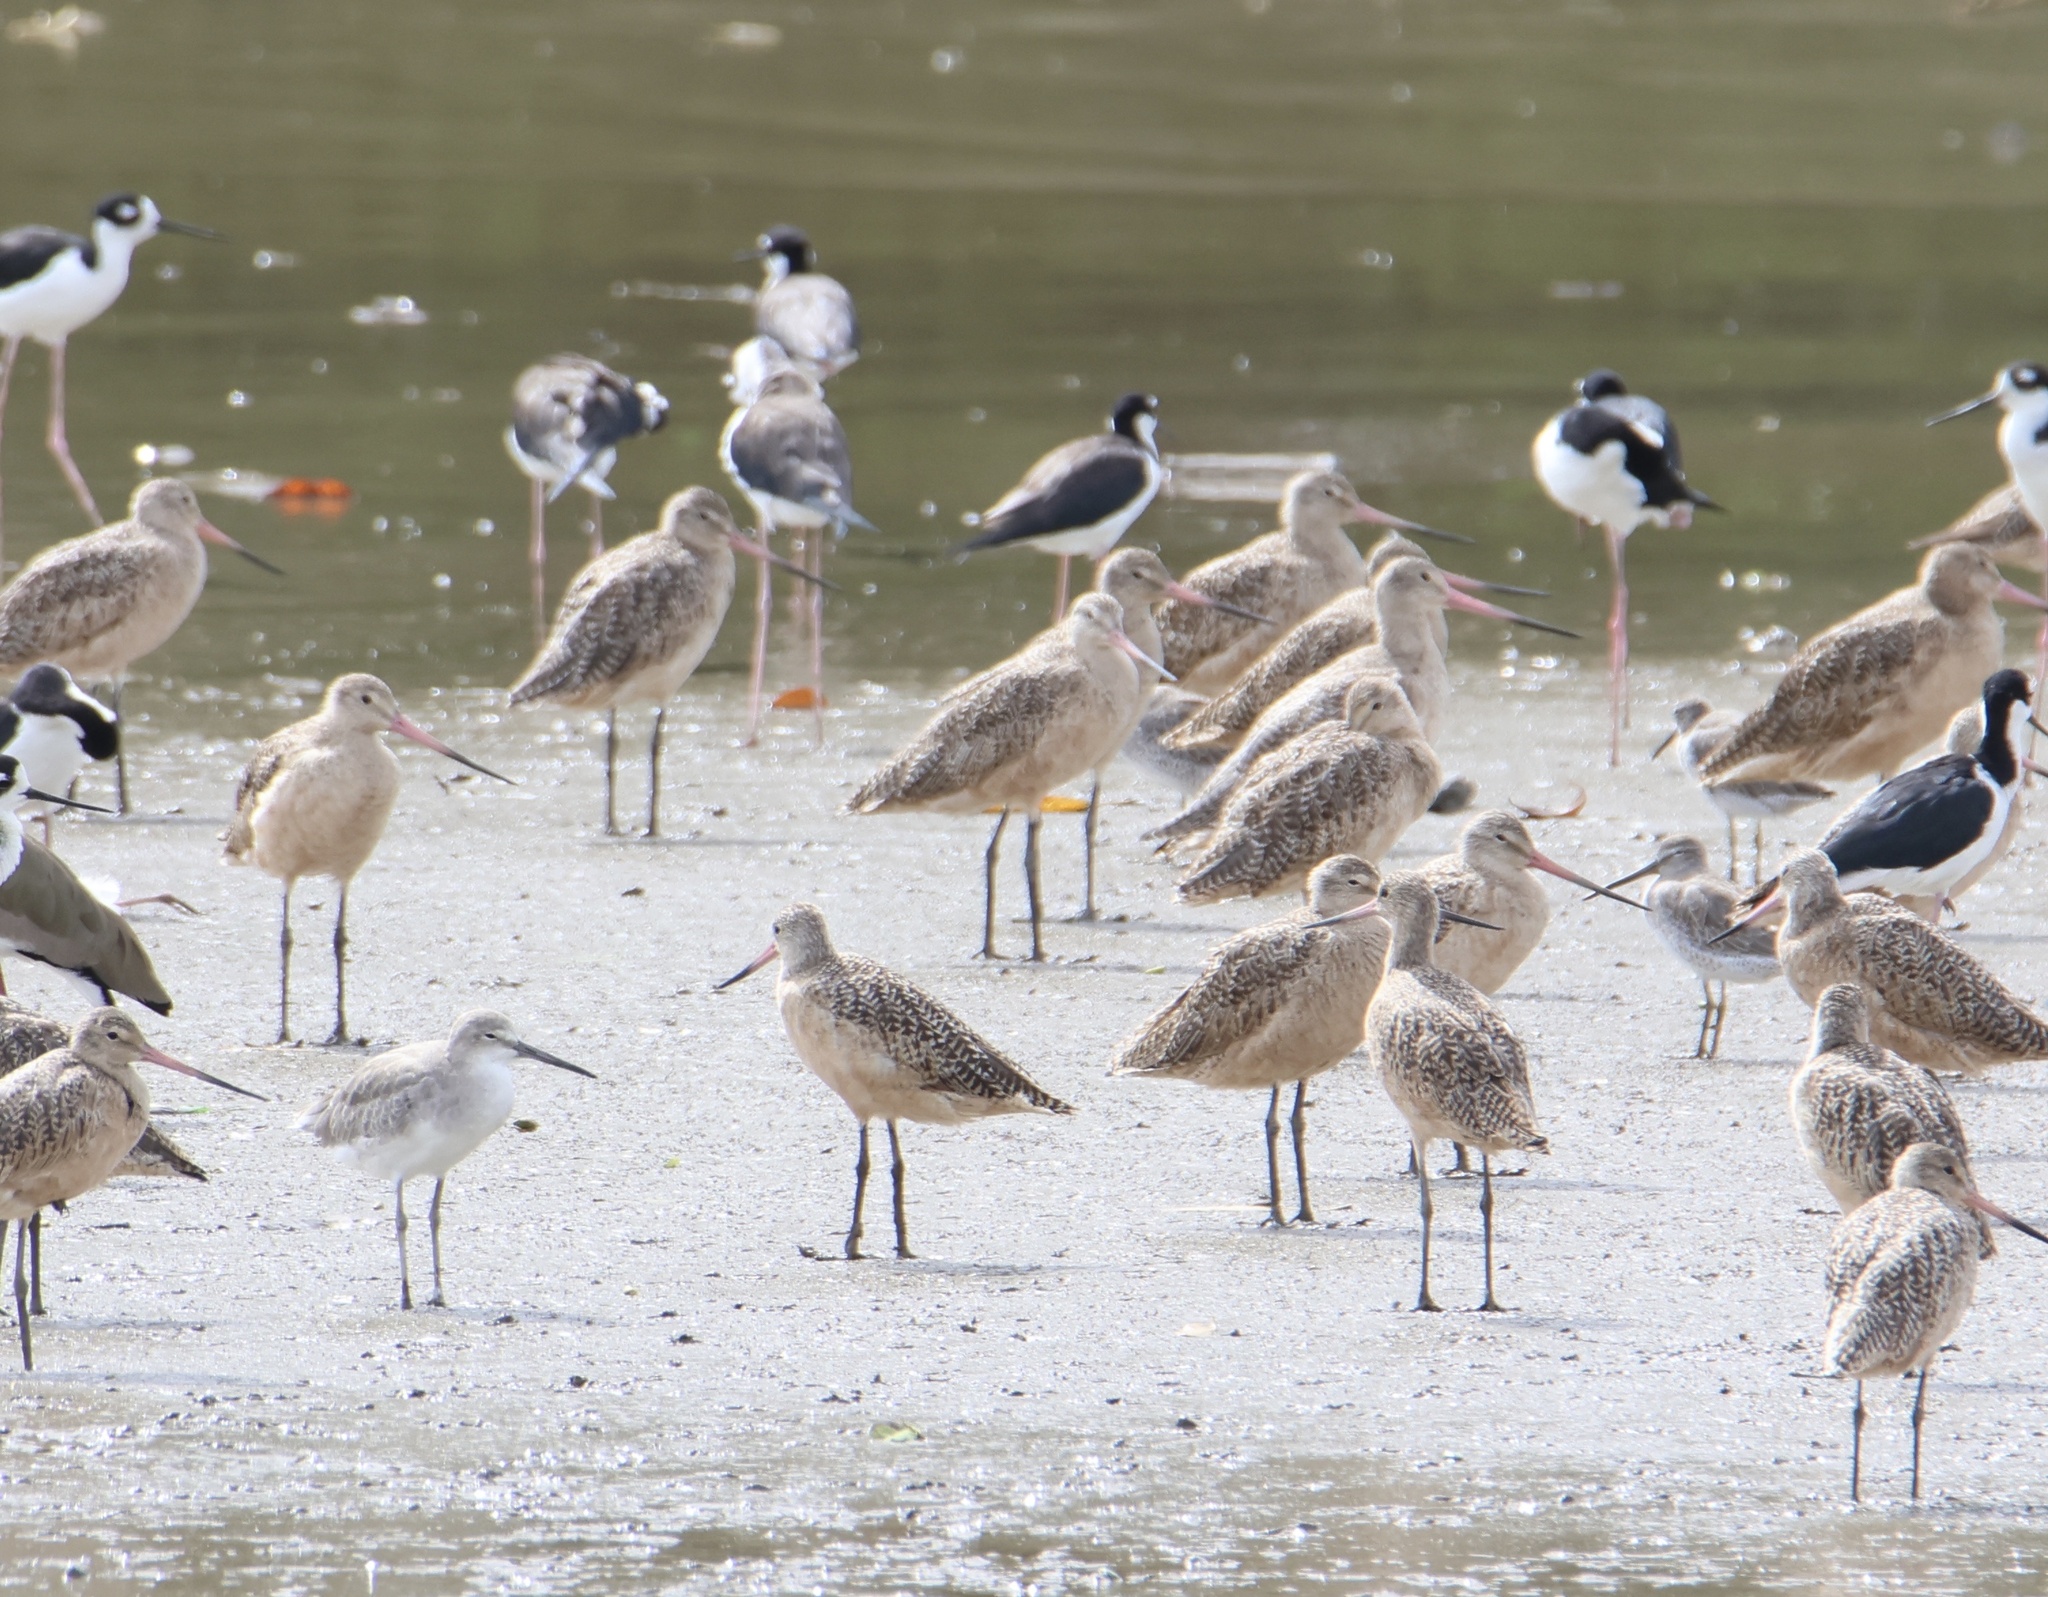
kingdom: Animalia
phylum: Chordata
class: Aves
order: Charadriiformes
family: Scolopacidae
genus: Limosa
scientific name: Limosa fedoa
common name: Marbled godwit
